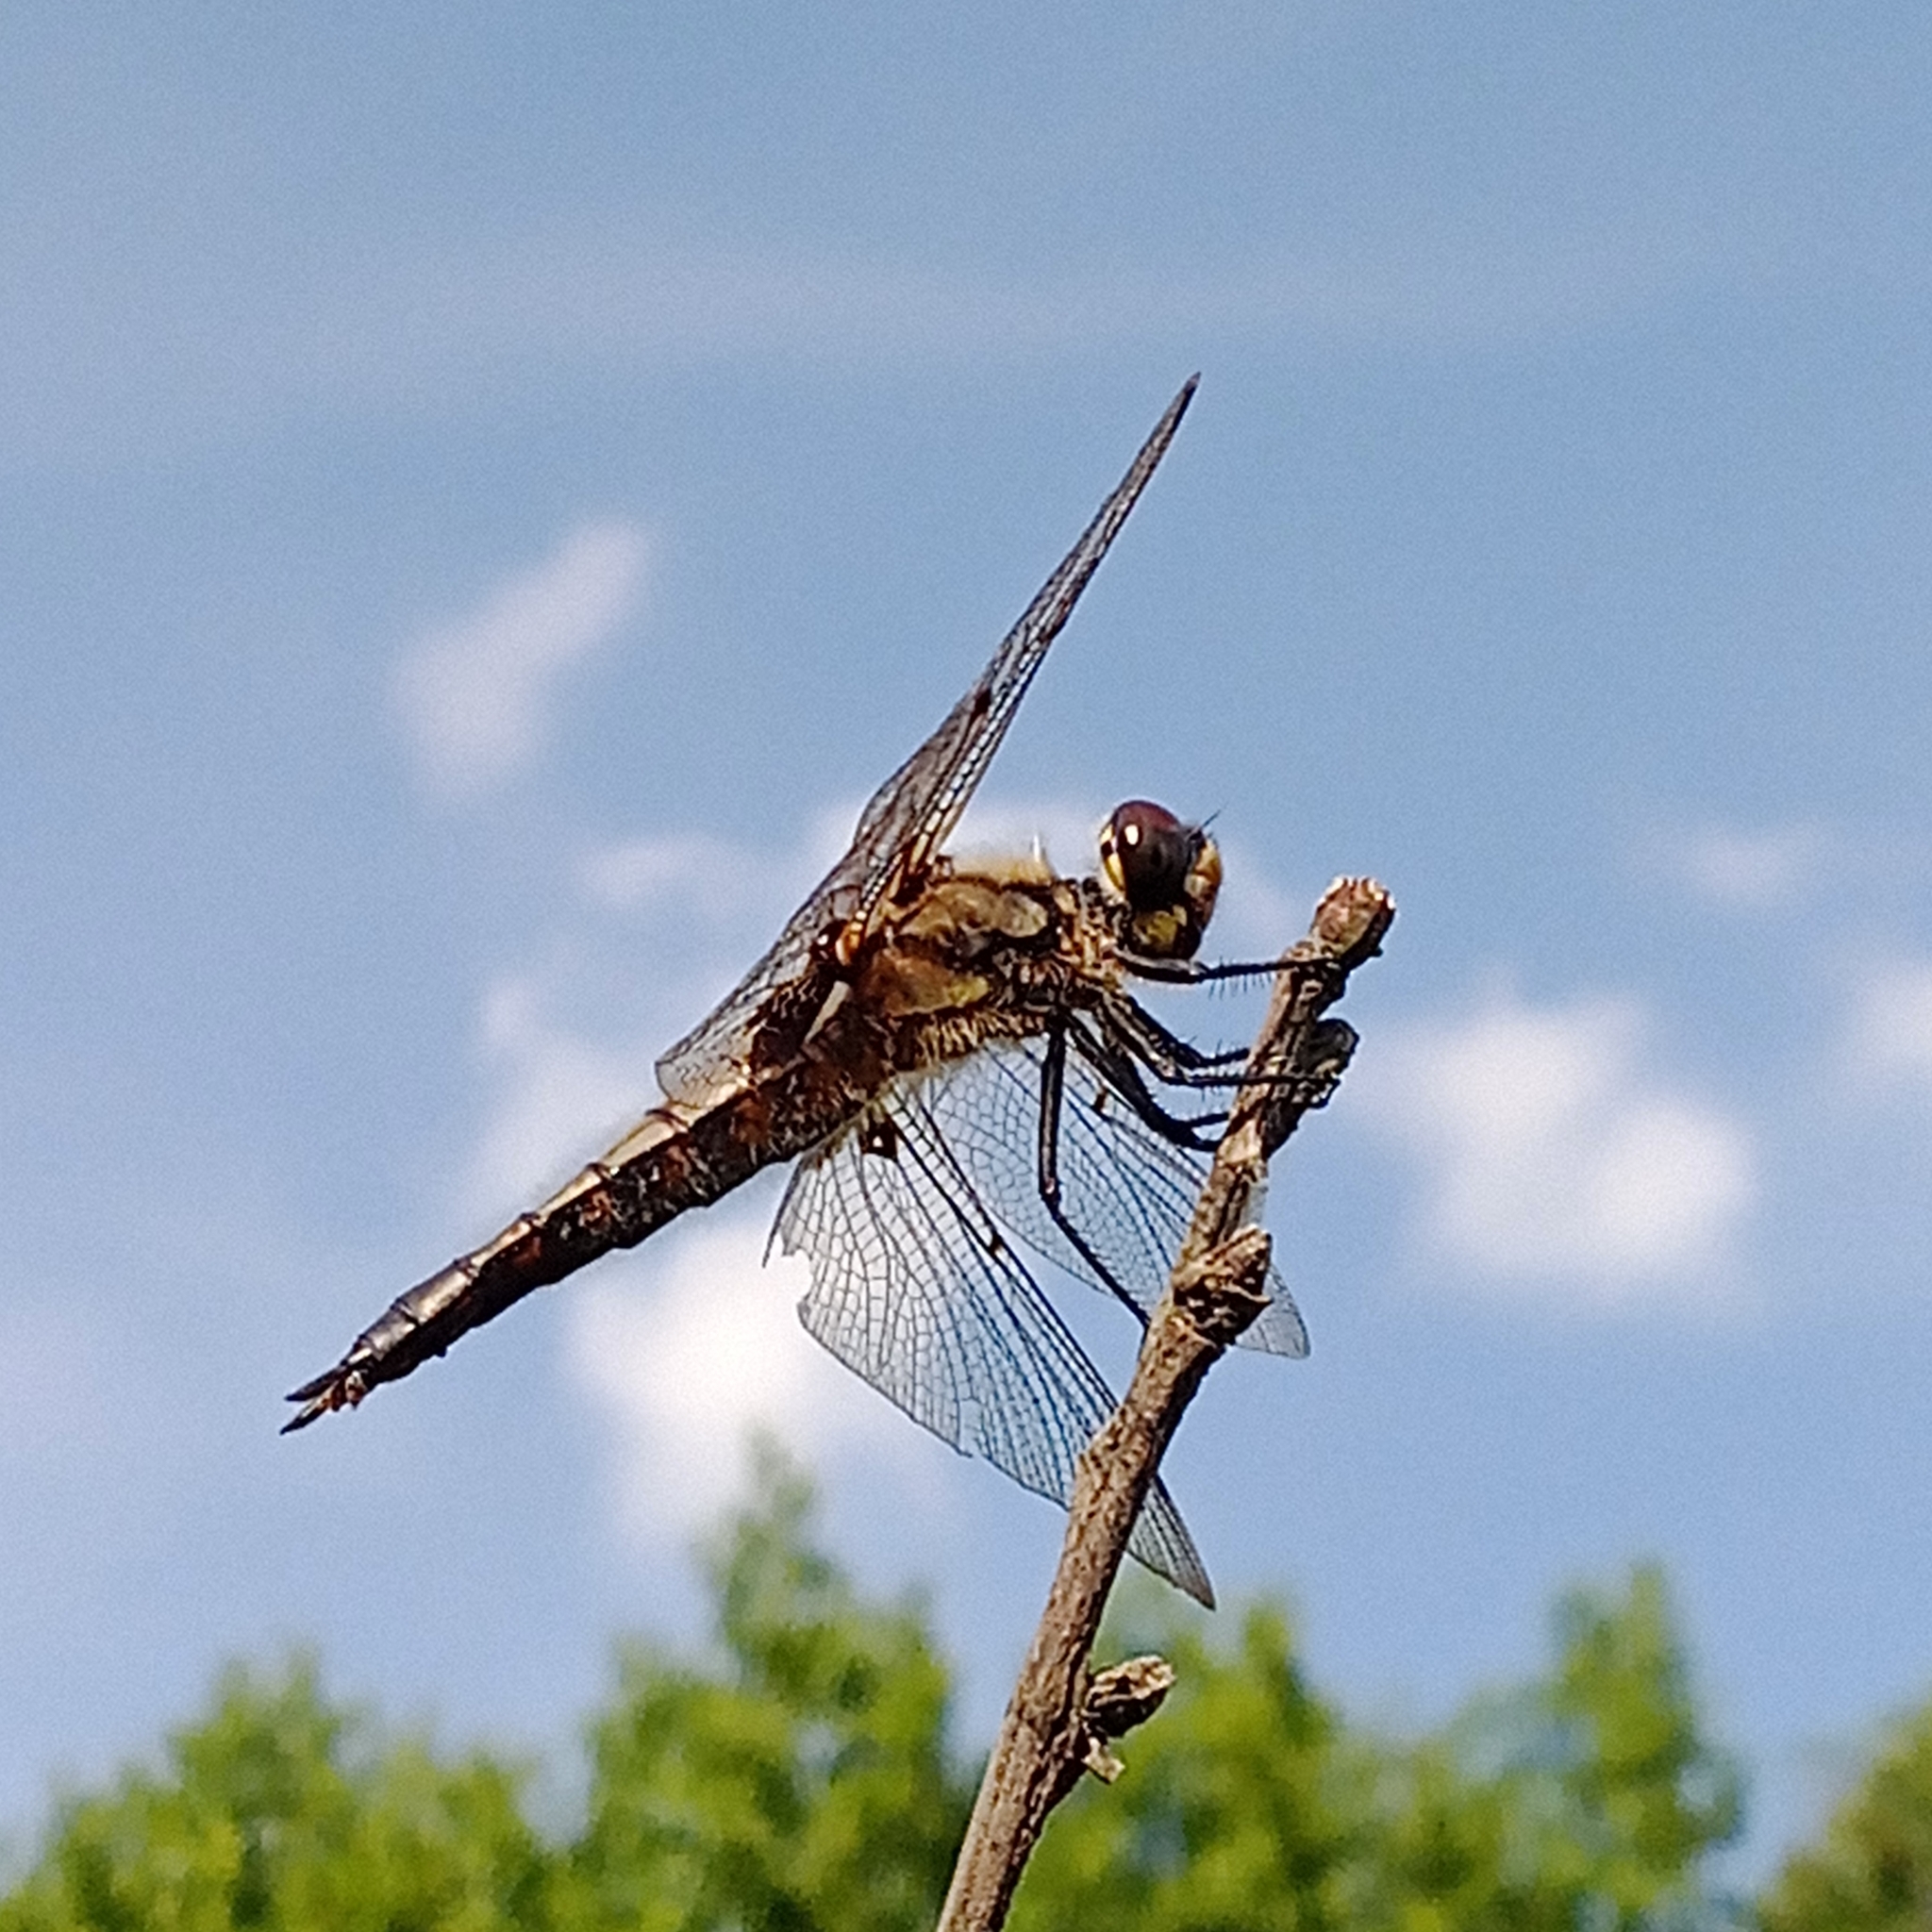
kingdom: Animalia
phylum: Arthropoda
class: Insecta
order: Odonata
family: Libellulidae
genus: Libellula
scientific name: Libellula quadrimaculata
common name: Four-spotted chaser
